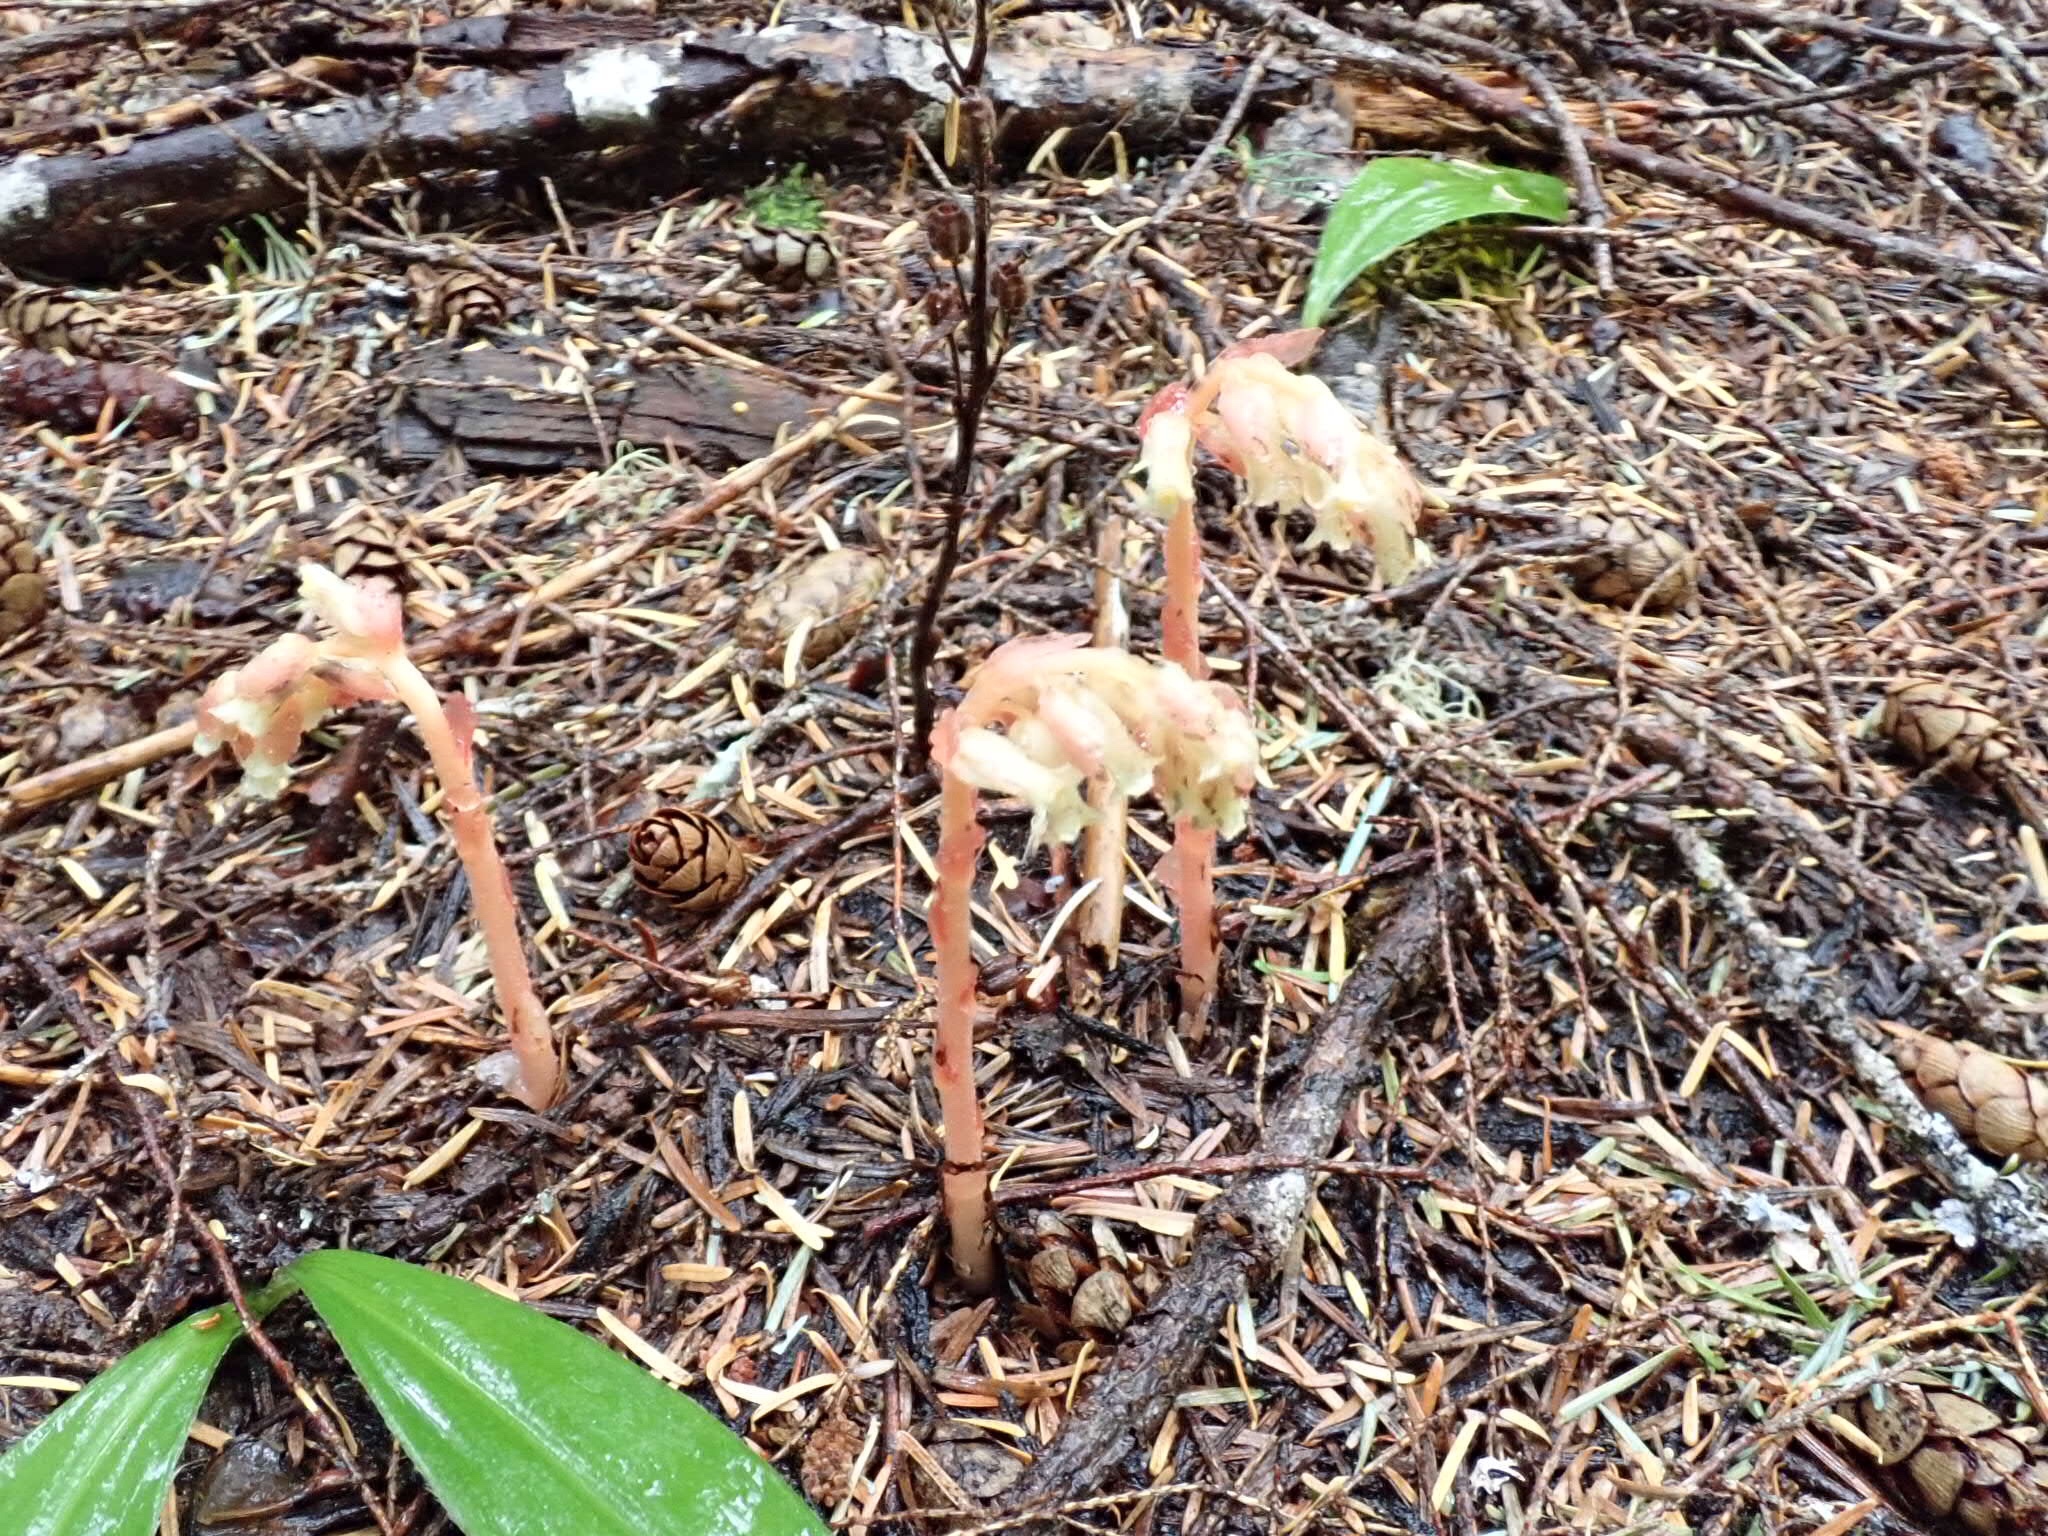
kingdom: Plantae
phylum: Tracheophyta
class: Magnoliopsida
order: Ericales
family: Ericaceae
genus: Hypopitys
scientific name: Hypopitys monotropa
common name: Yellow bird's-nest
